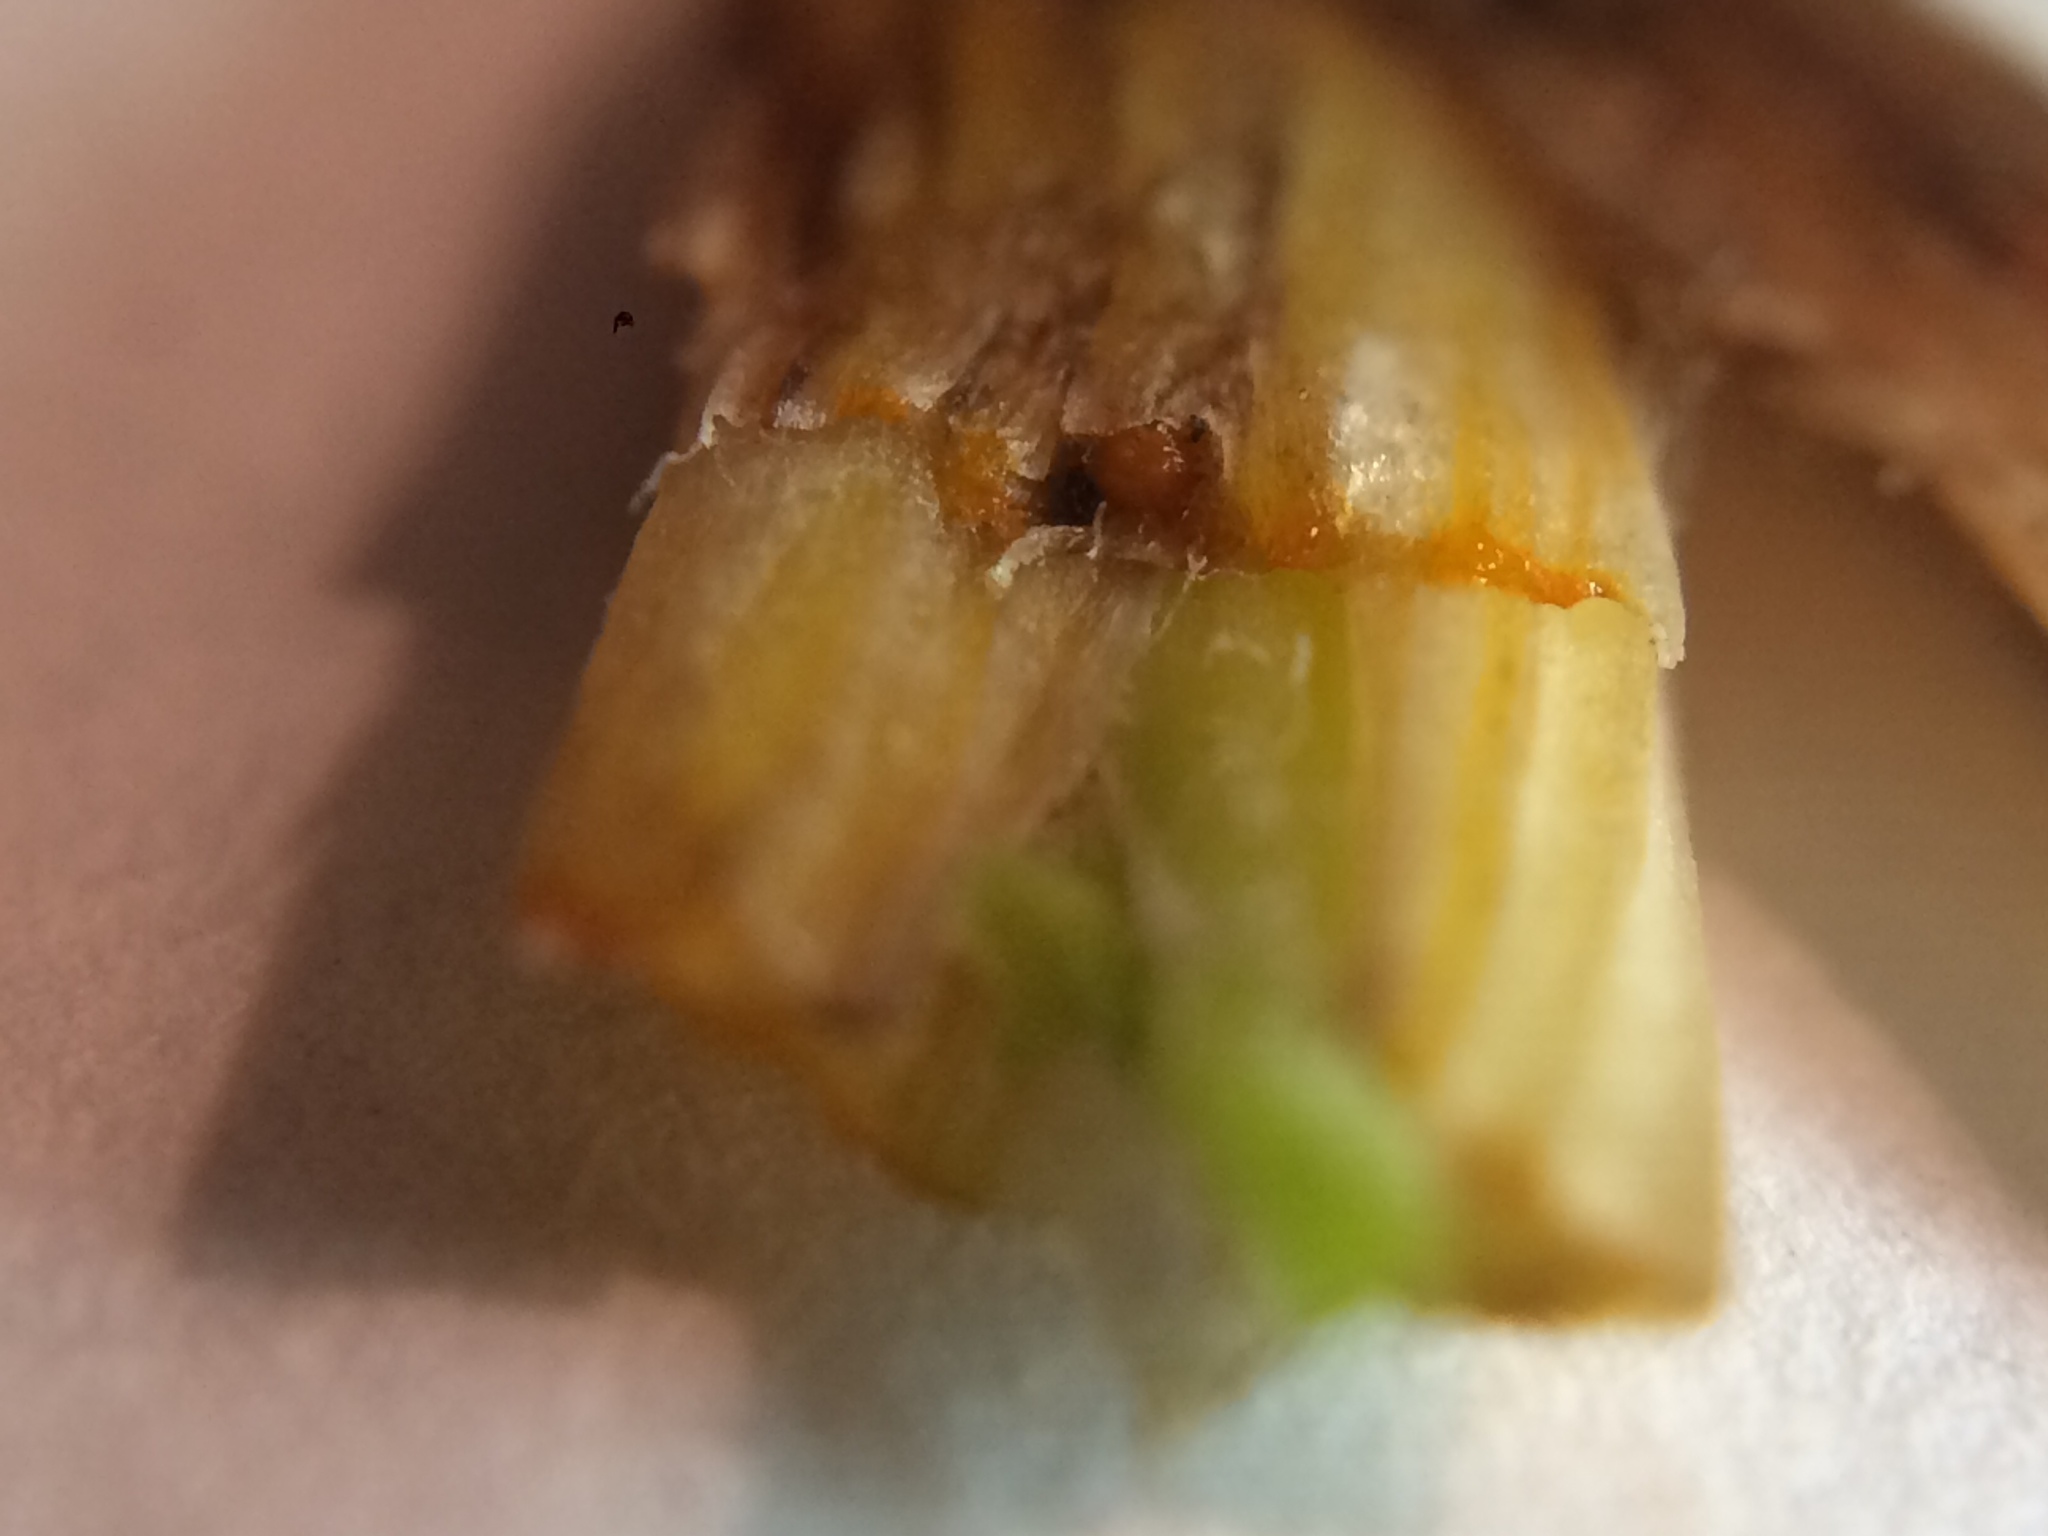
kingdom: Plantae
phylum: Tracheophyta
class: Magnoliopsida
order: Ranunculales
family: Papaveraceae
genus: Chelidonium
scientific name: Chelidonium majus
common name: Greater celandine
